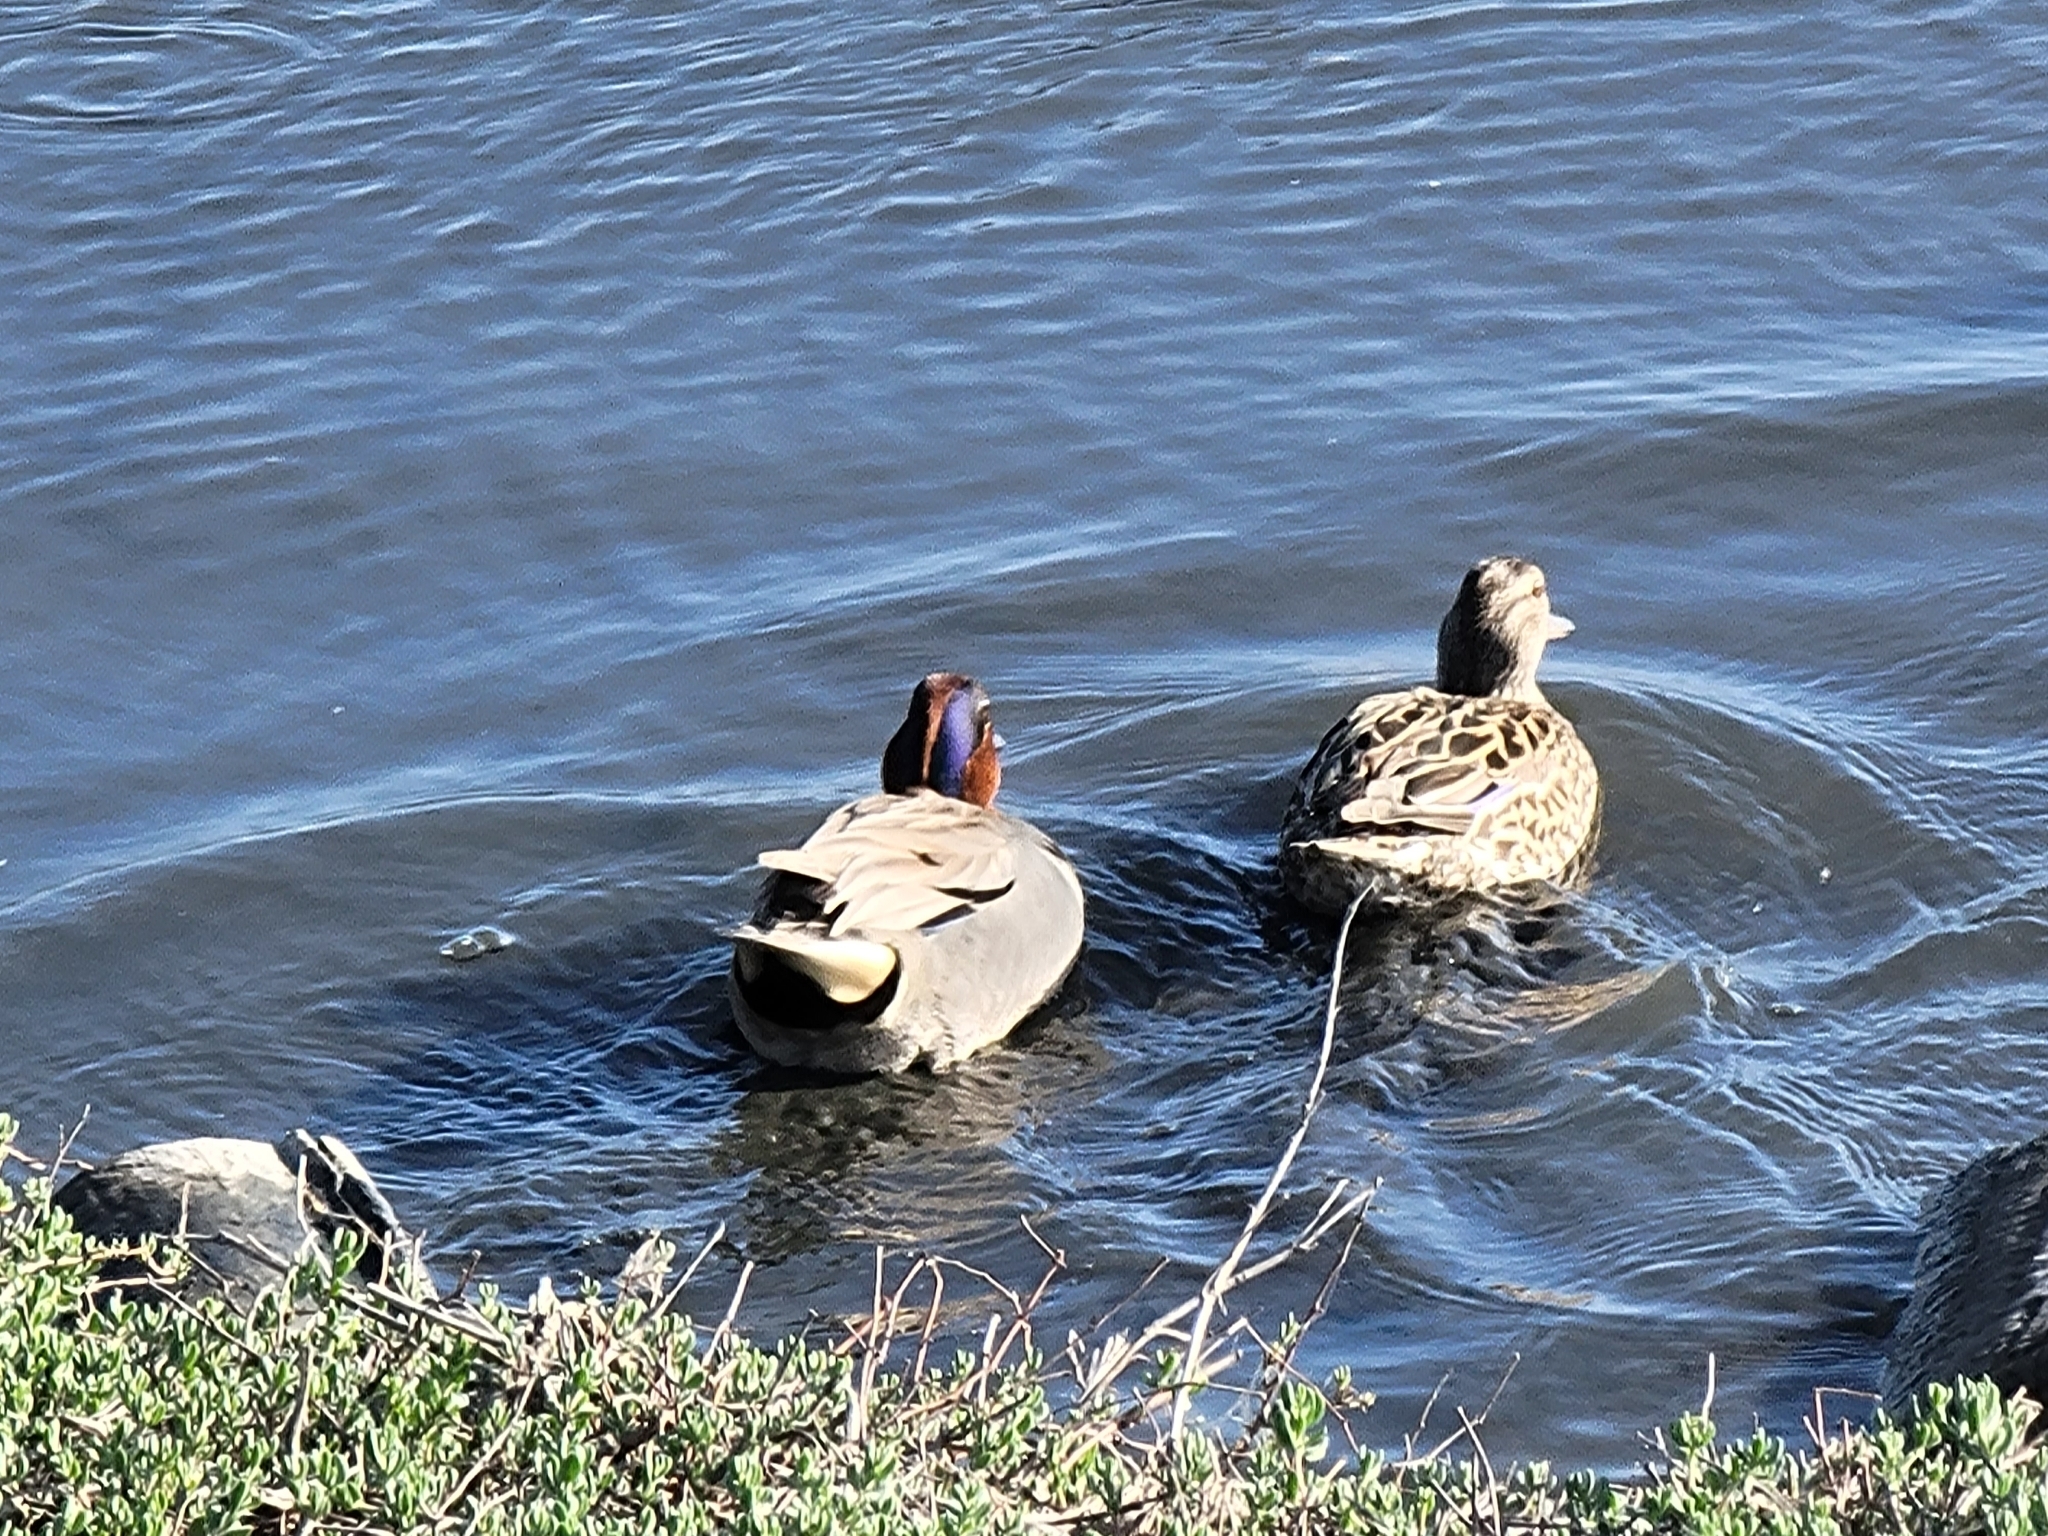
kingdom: Animalia
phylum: Chordata
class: Aves
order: Anseriformes
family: Anatidae
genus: Anas
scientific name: Anas crecca
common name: Eurasian teal
